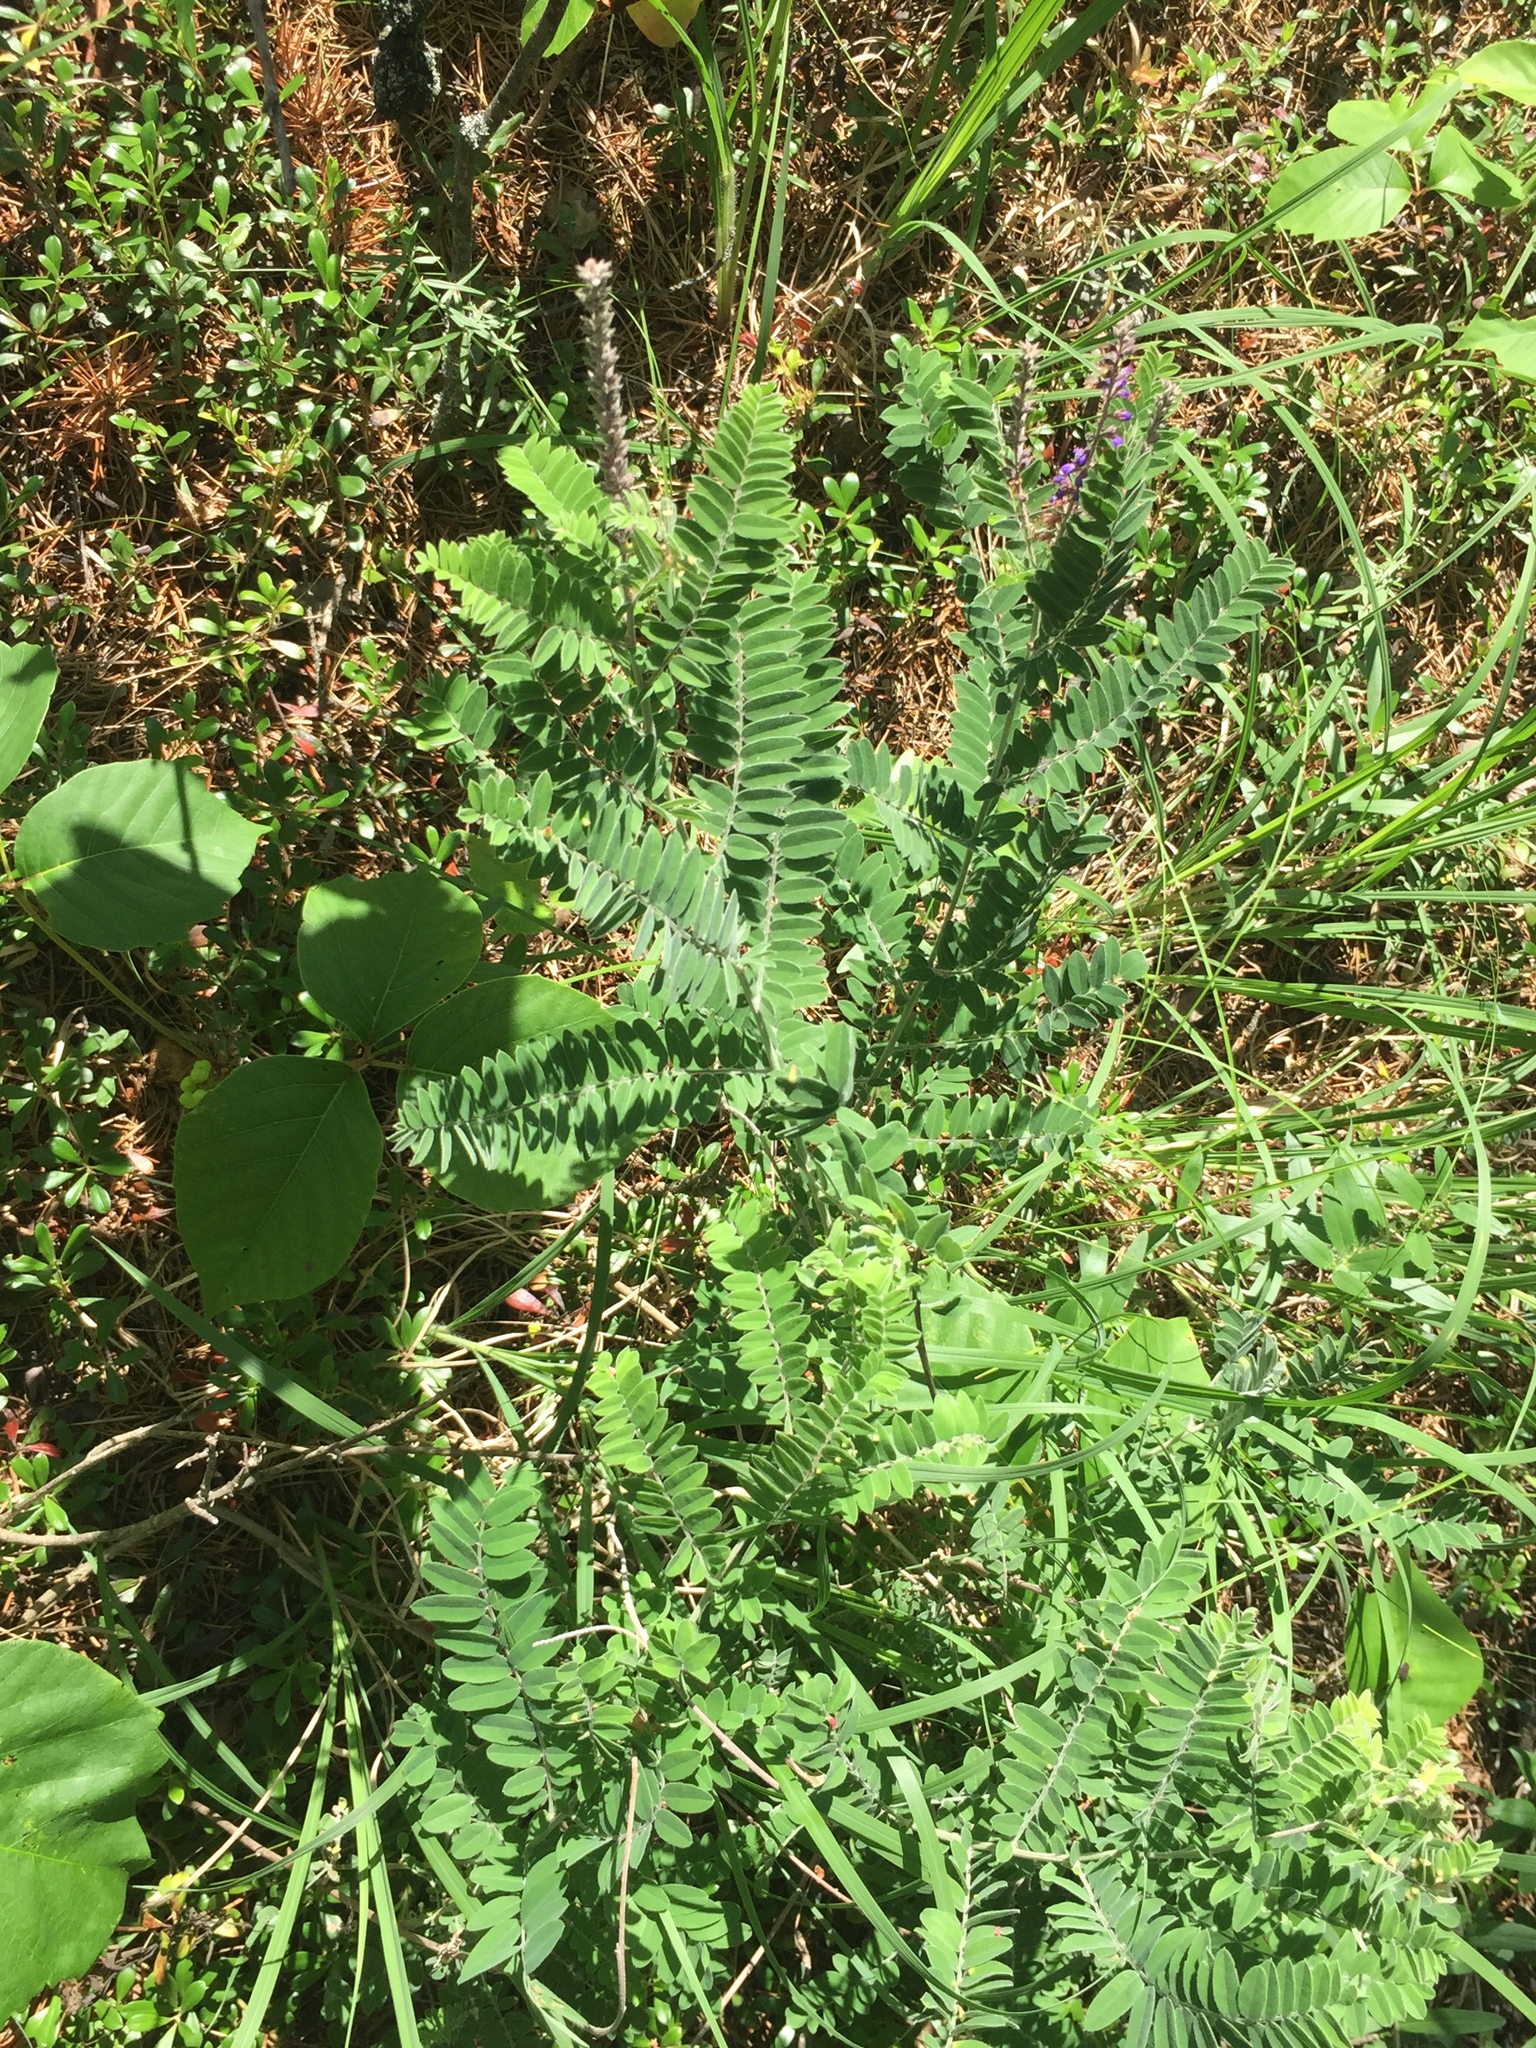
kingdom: Plantae
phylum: Tracheophyta
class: Magnoliopsida
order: Fabales
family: Fabaceae
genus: Amorpha
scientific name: Amorpha canescens
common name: Leadplant
